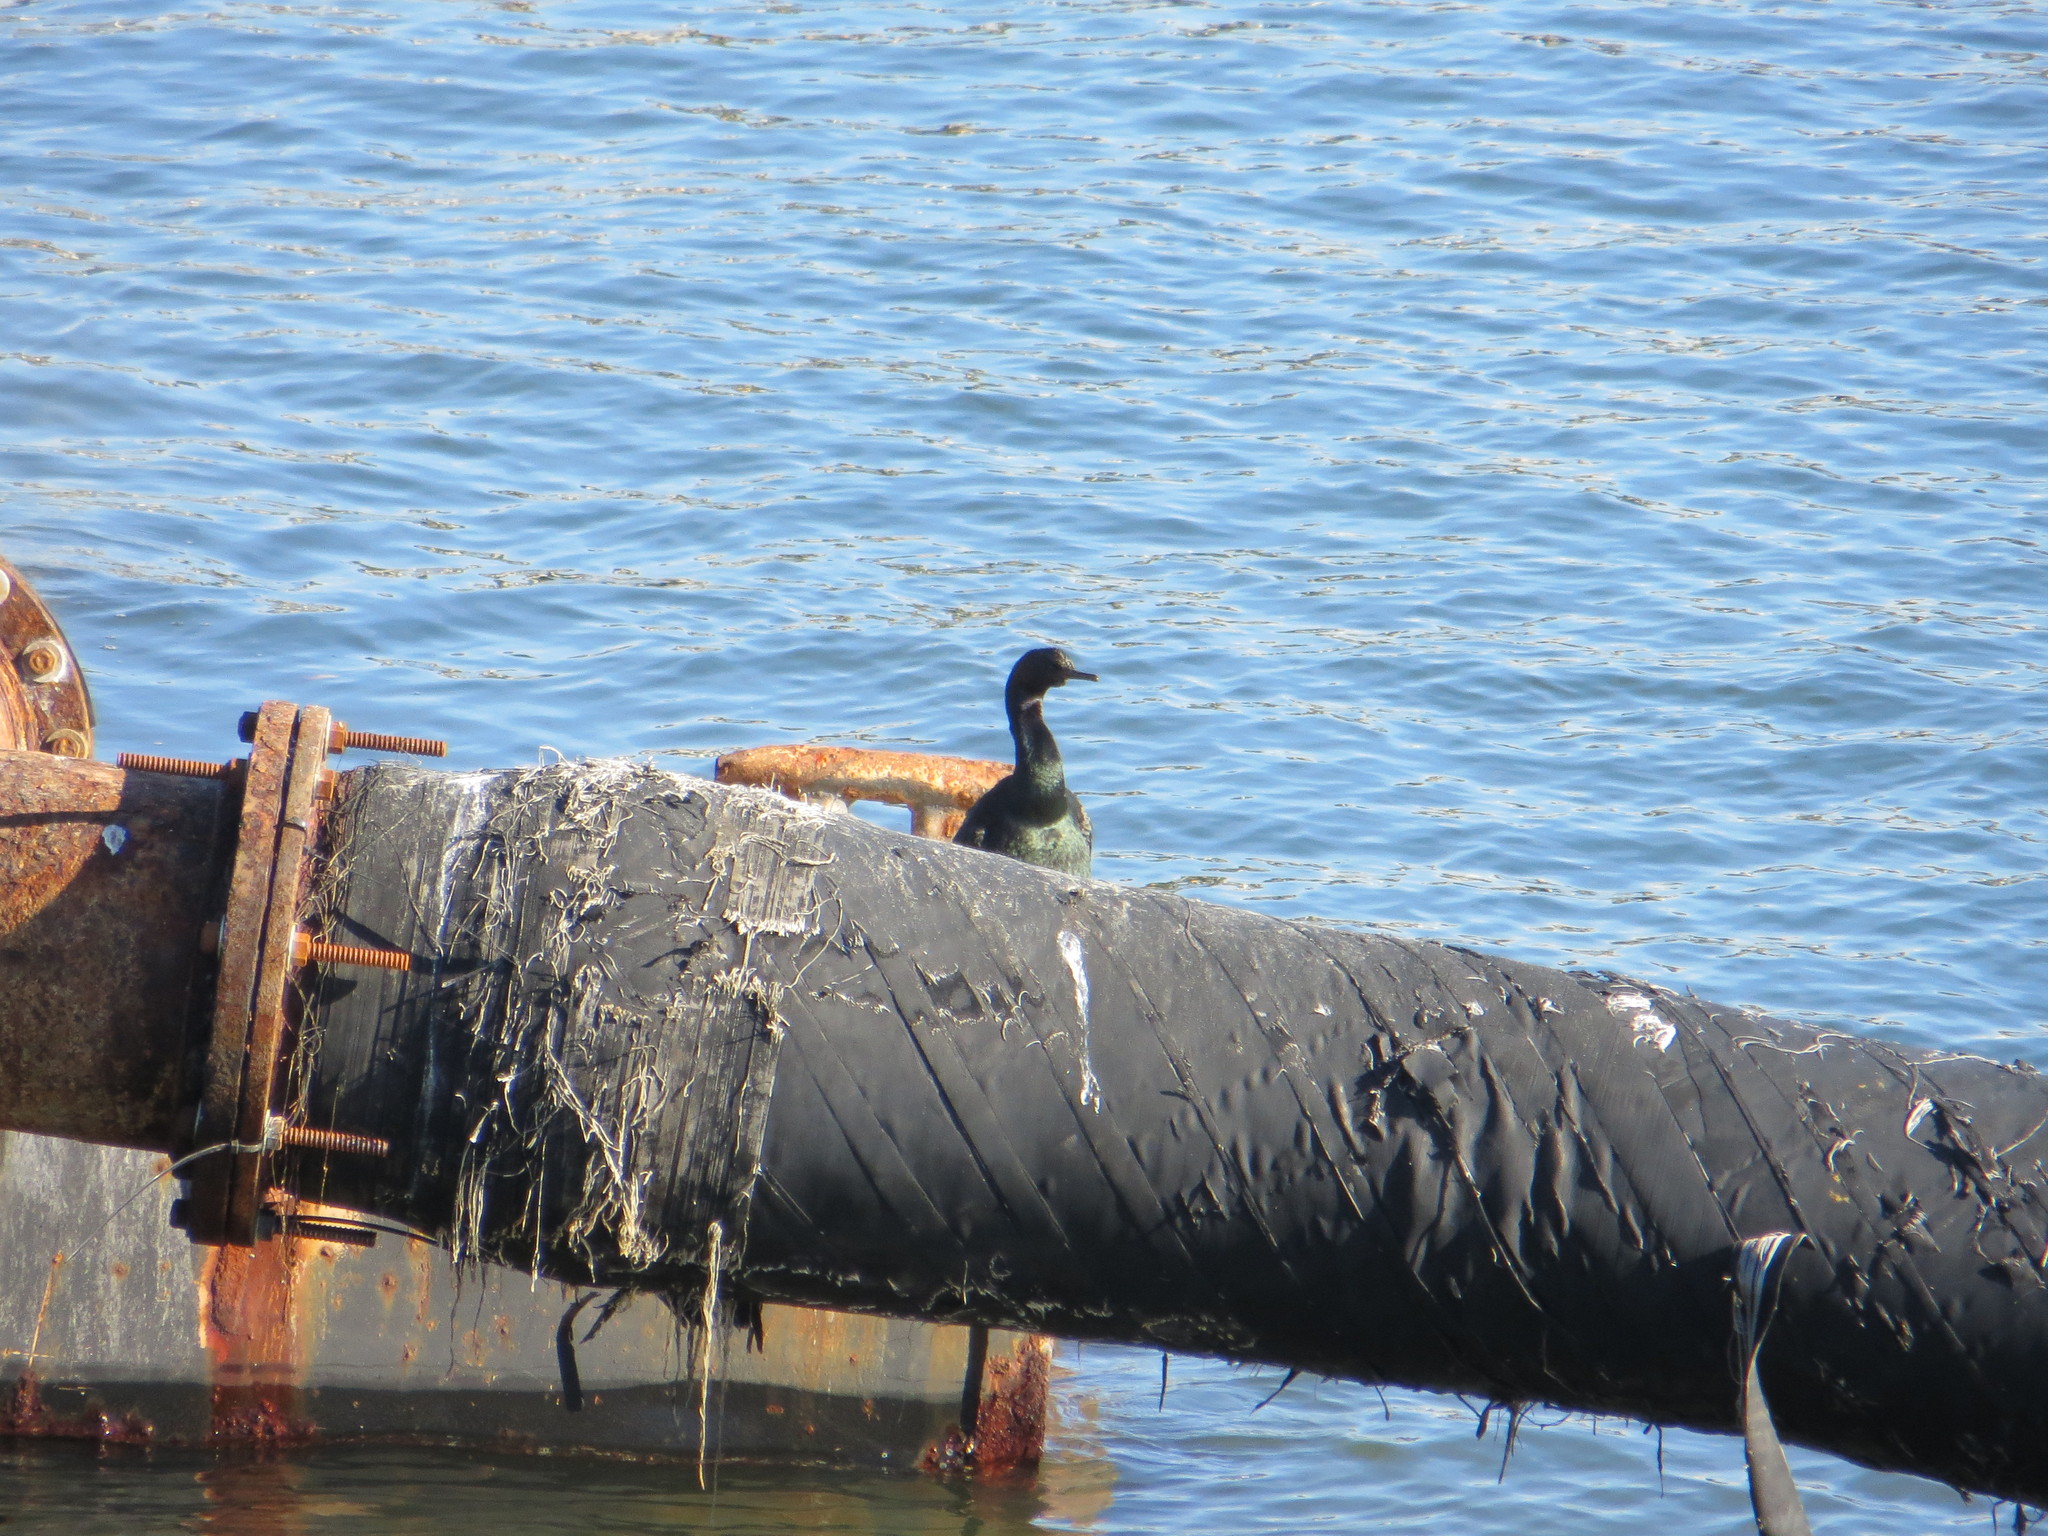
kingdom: Animalia
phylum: Chordata
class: Aves
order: Suliformes
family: Phalacrocoracidae
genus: Phalacrocorax
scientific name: Phalacrocorax pelagicus
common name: Pelagic cormorant
